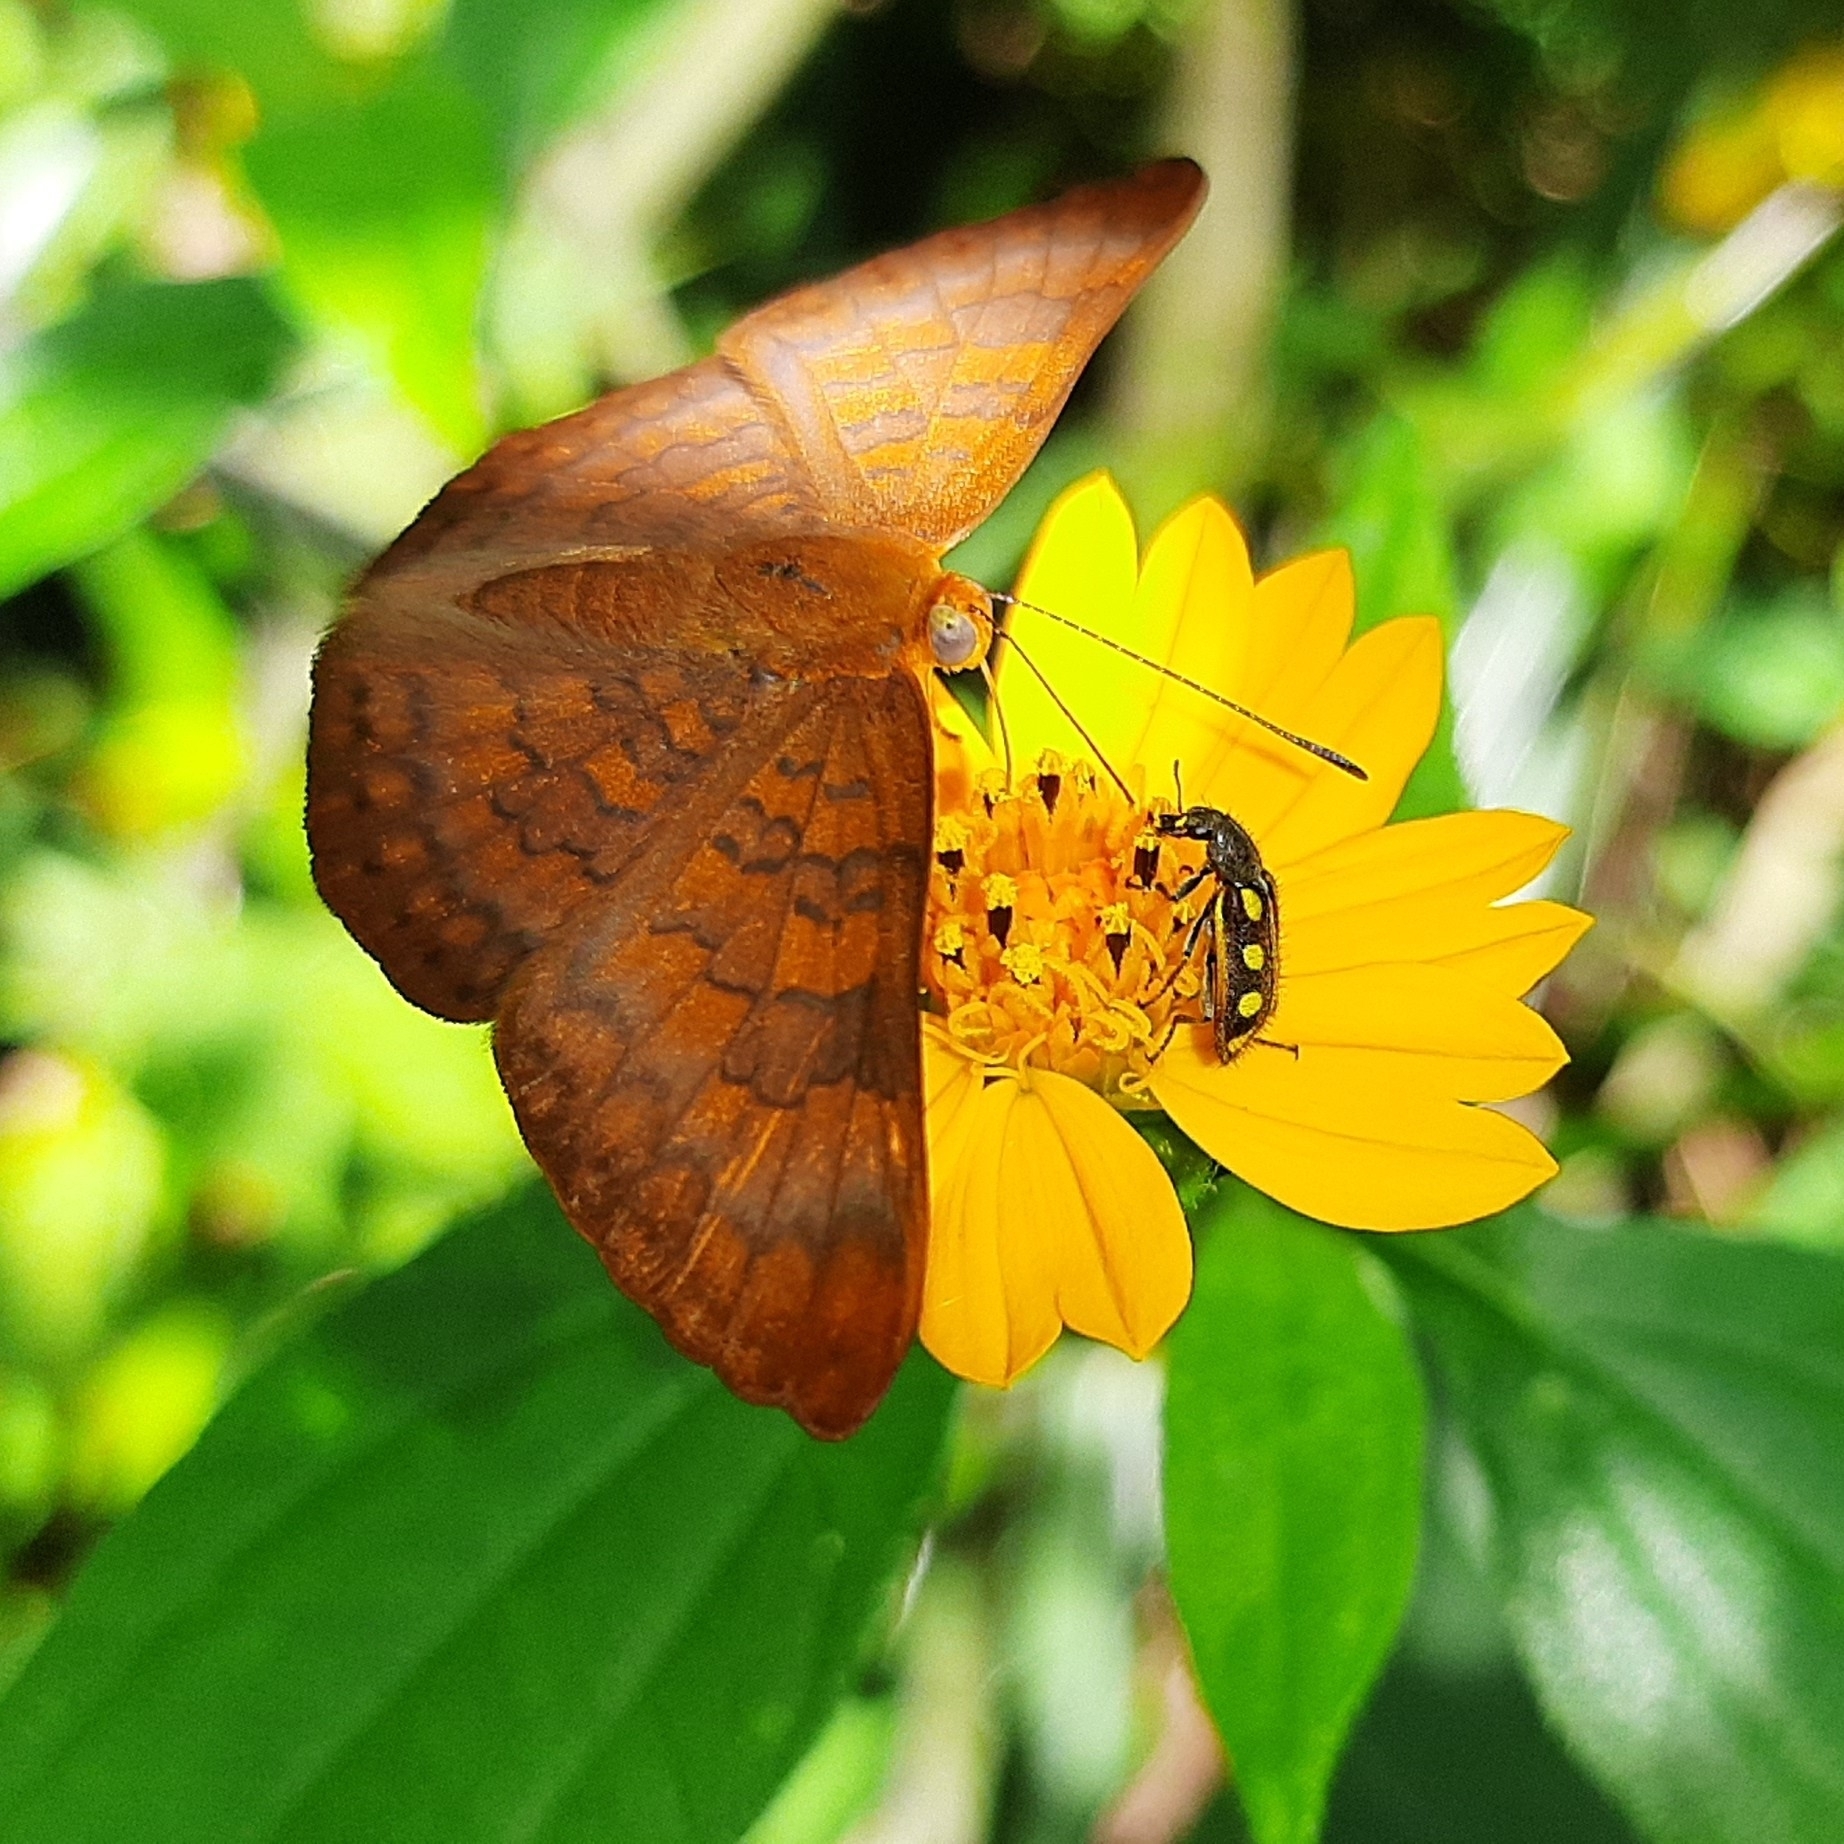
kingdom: Animalia
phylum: Arthropoda
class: Insecta
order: Coleoptera
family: Melyridae
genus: Astylus
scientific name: Astylus
